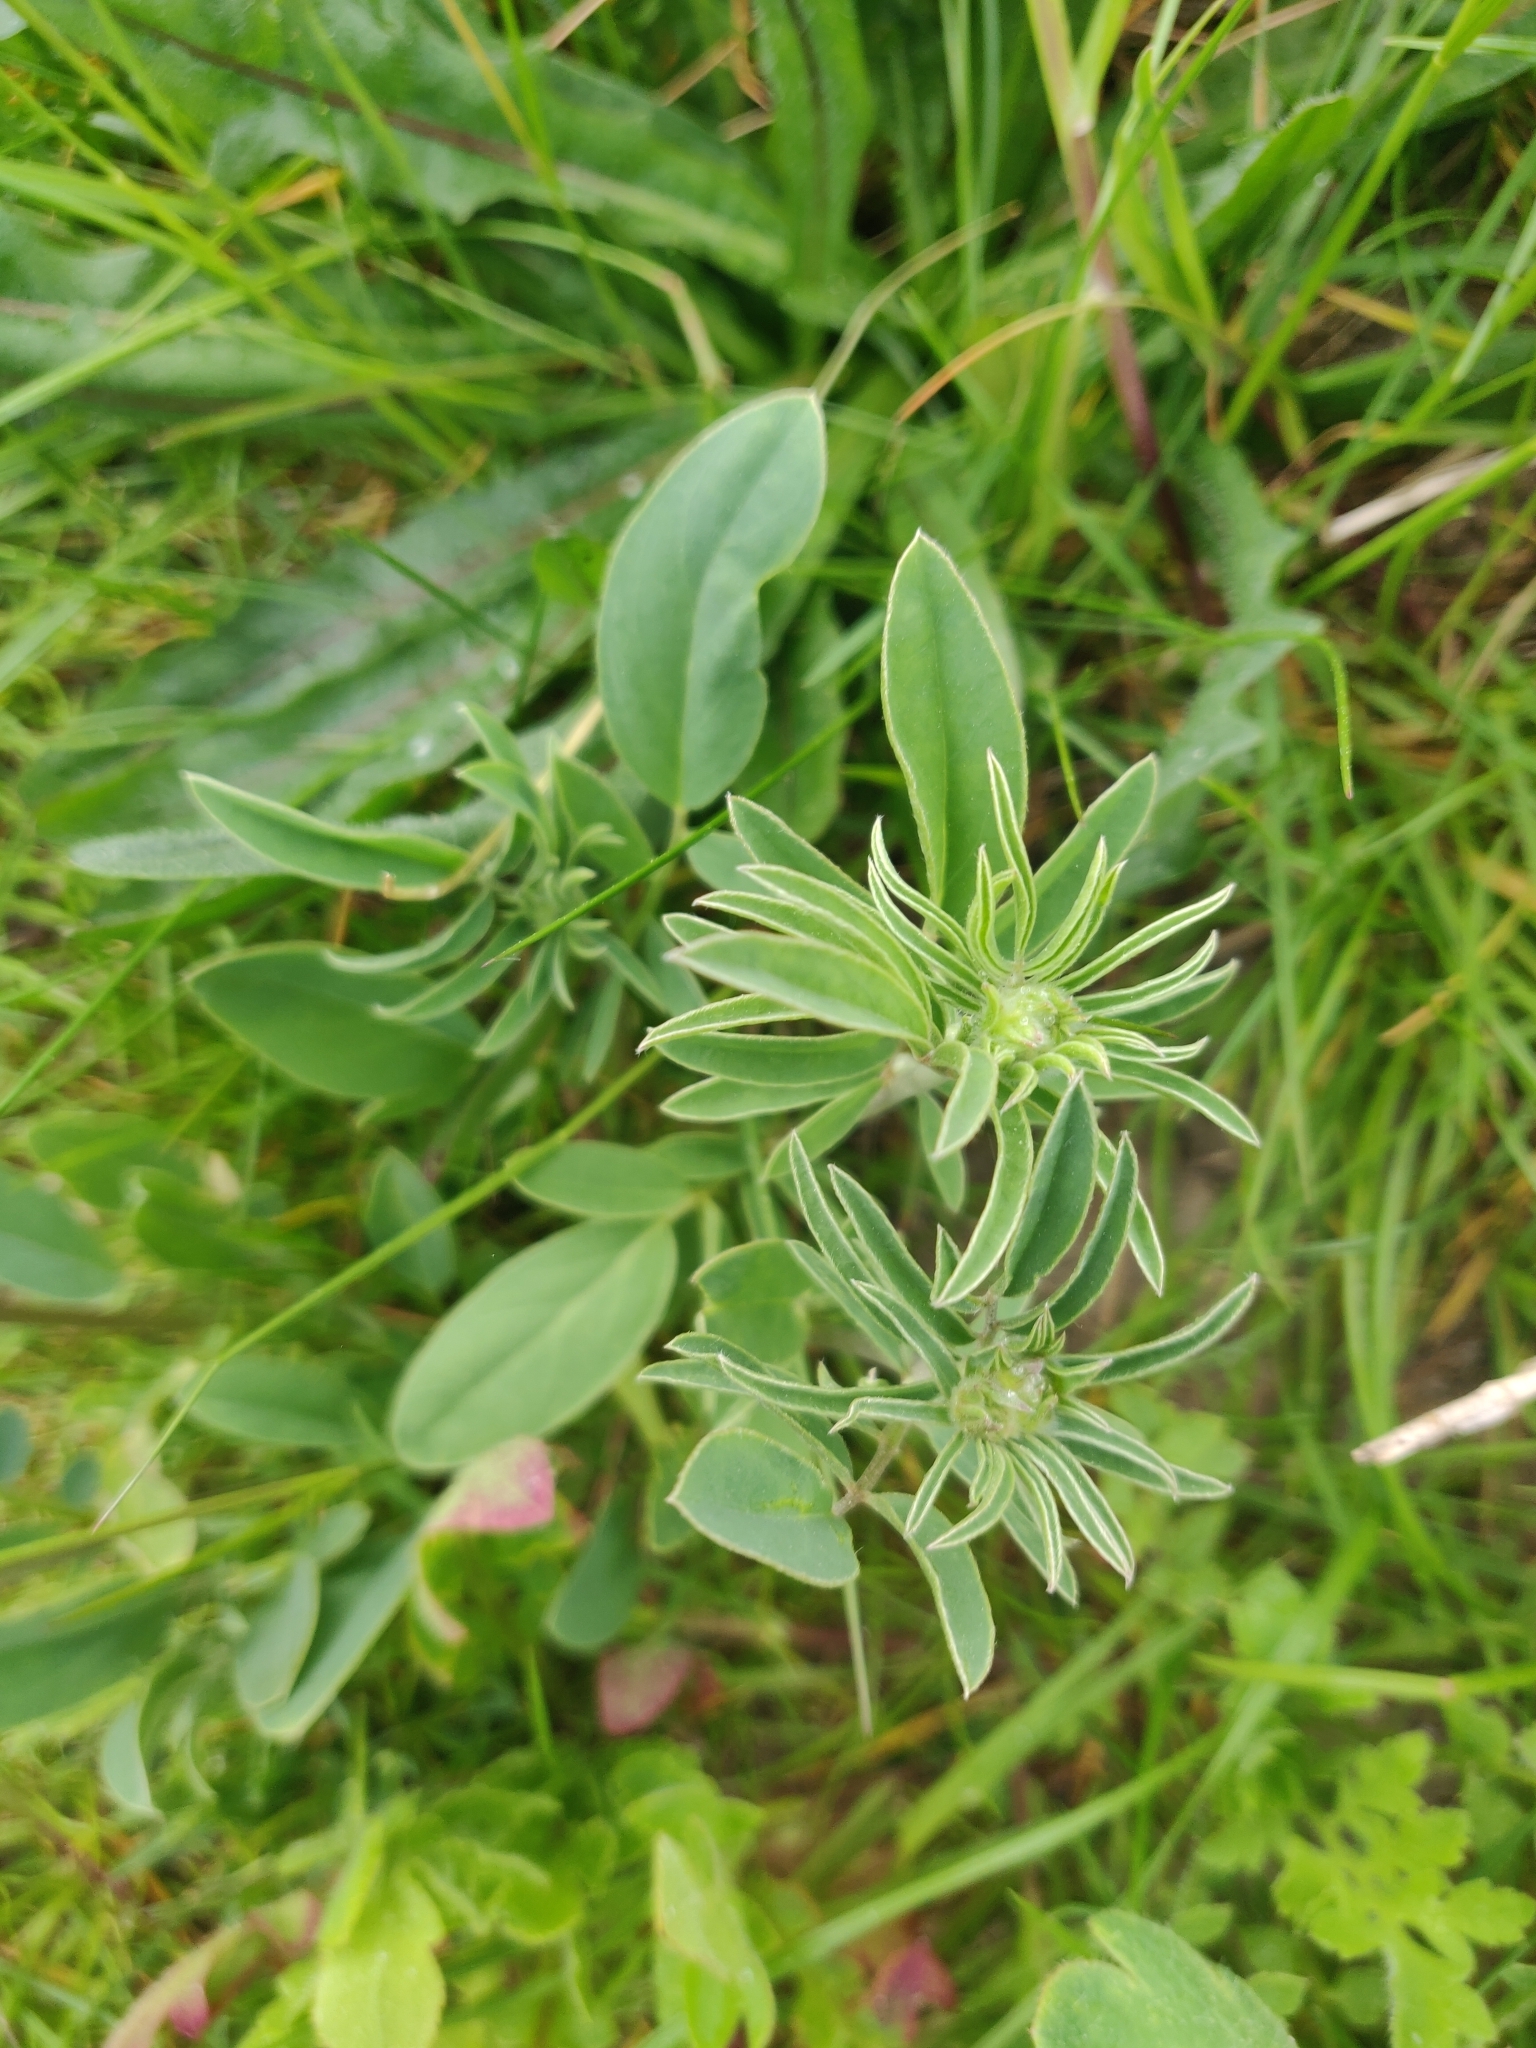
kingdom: Plantae
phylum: Tracheophyta
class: Magnoliopsida
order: Fabales
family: Fabaceae
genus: Anthyllis
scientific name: Anthyllis vulneraria
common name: Kidney vetch
